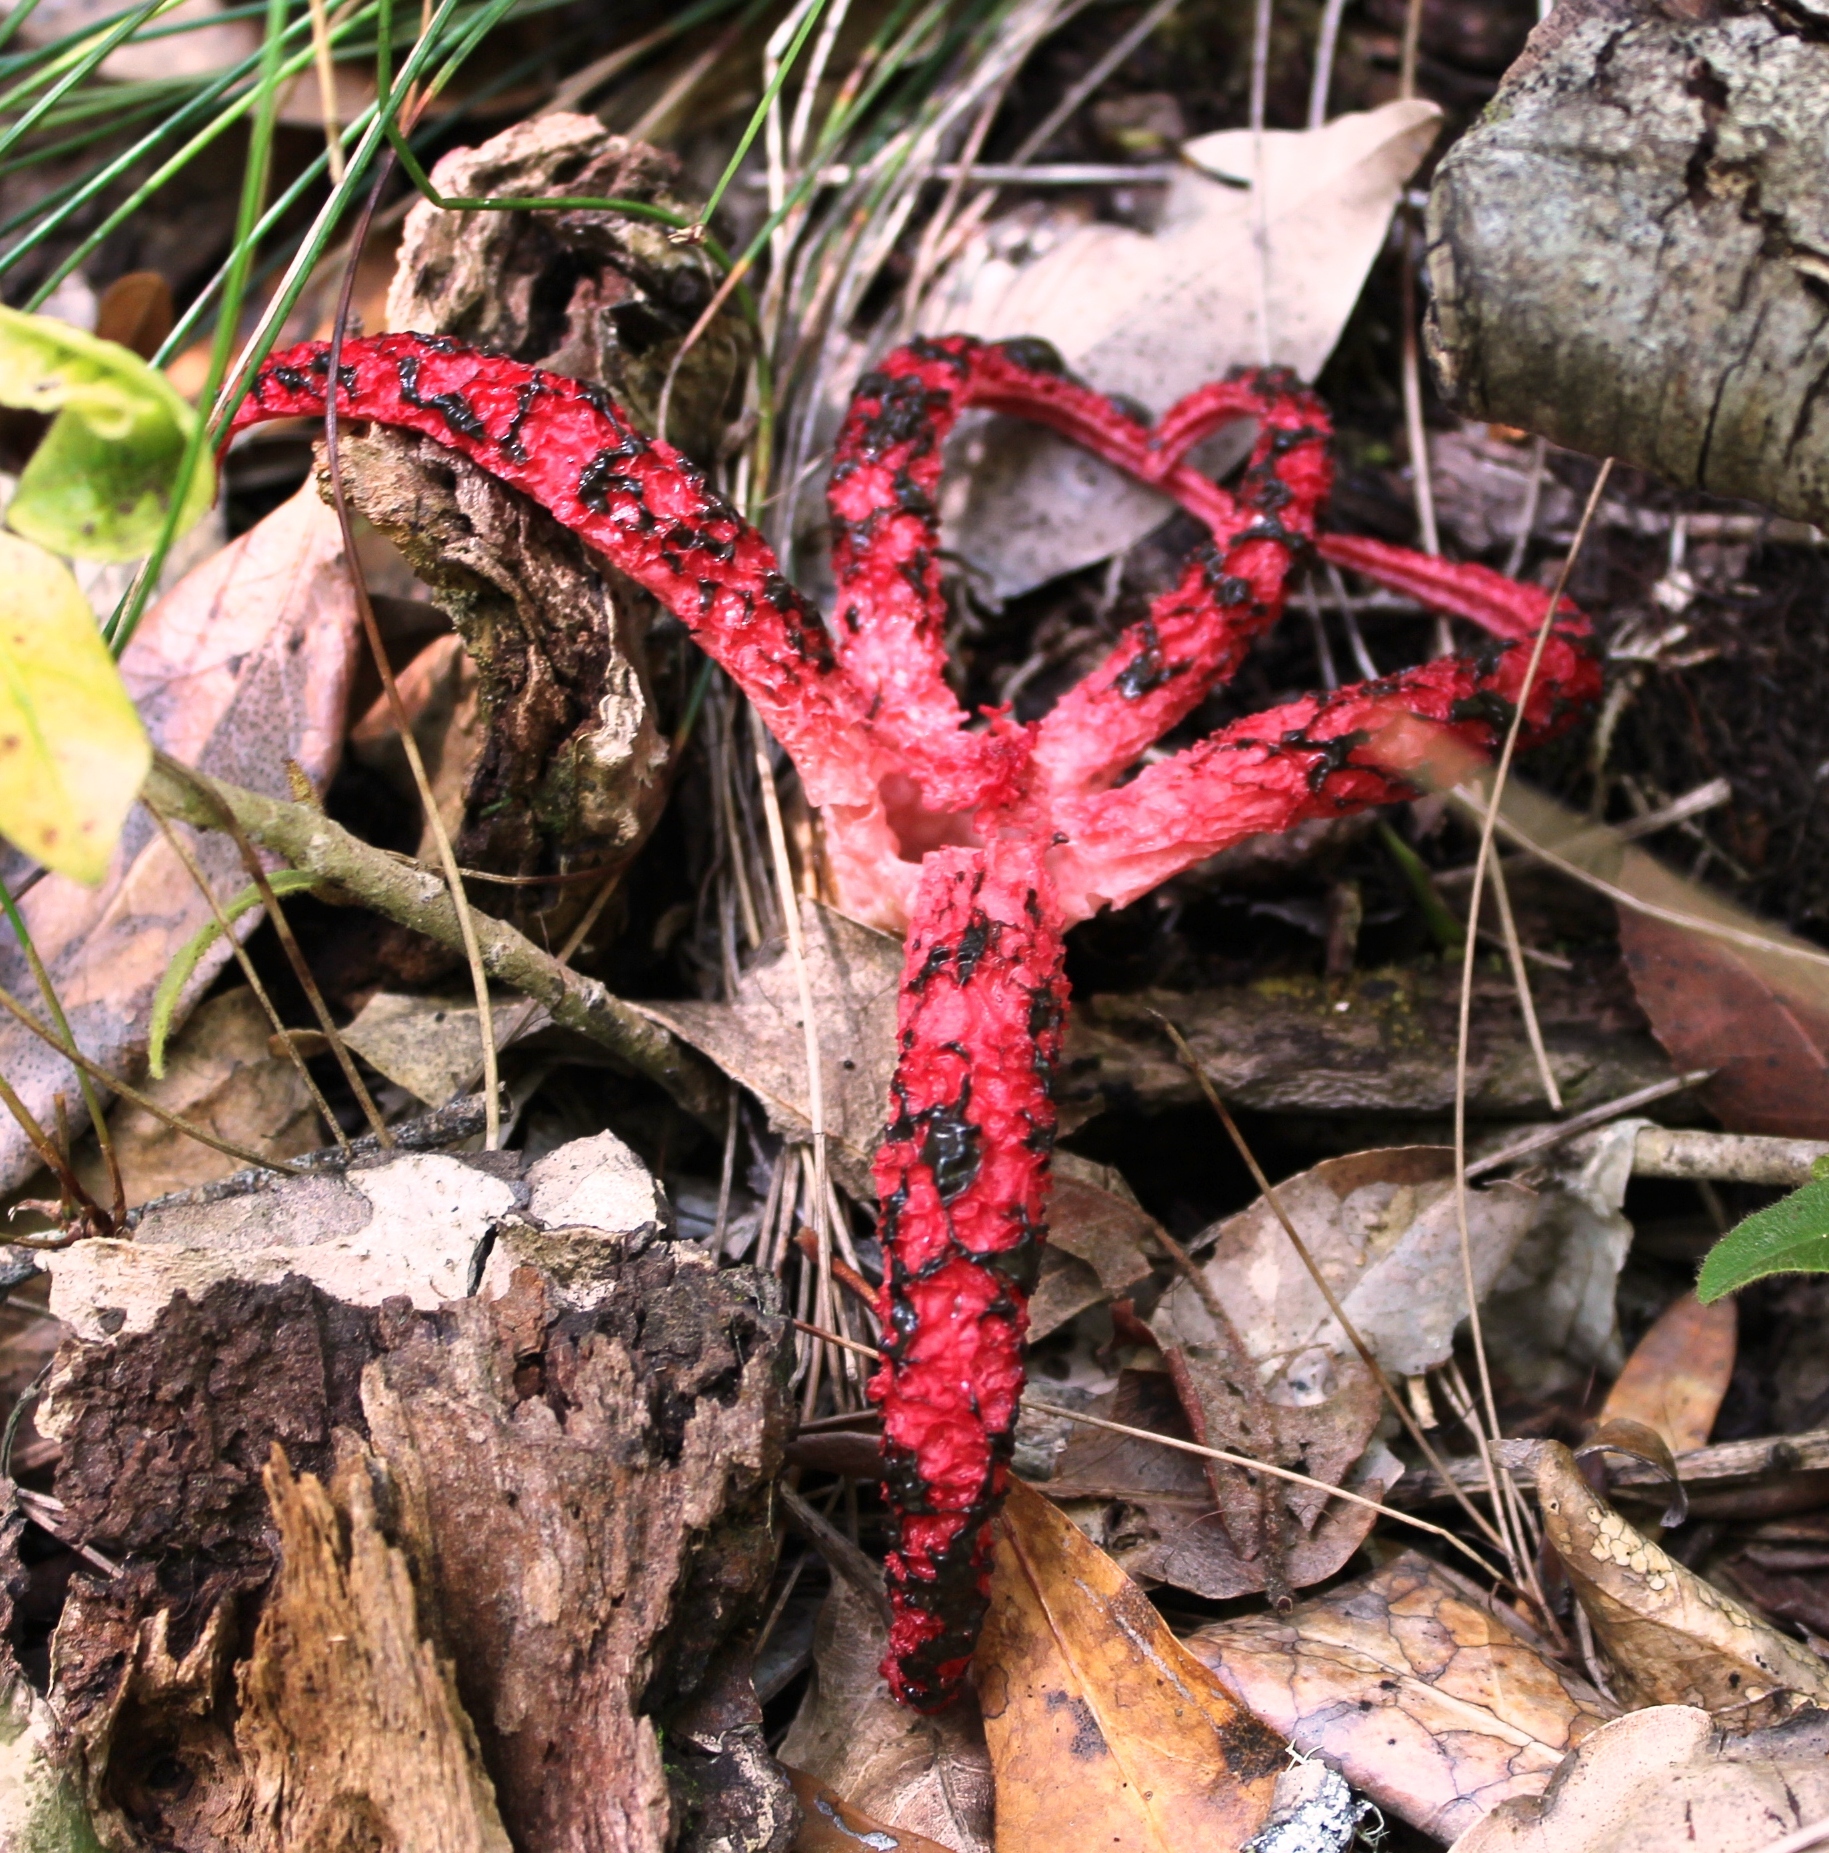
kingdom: Fungi
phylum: Basidiomycota
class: Agaricomycetes
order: Phallales
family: Phallaceae
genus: Clathrus
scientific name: Clathrus archeri
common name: Devil's fingers
